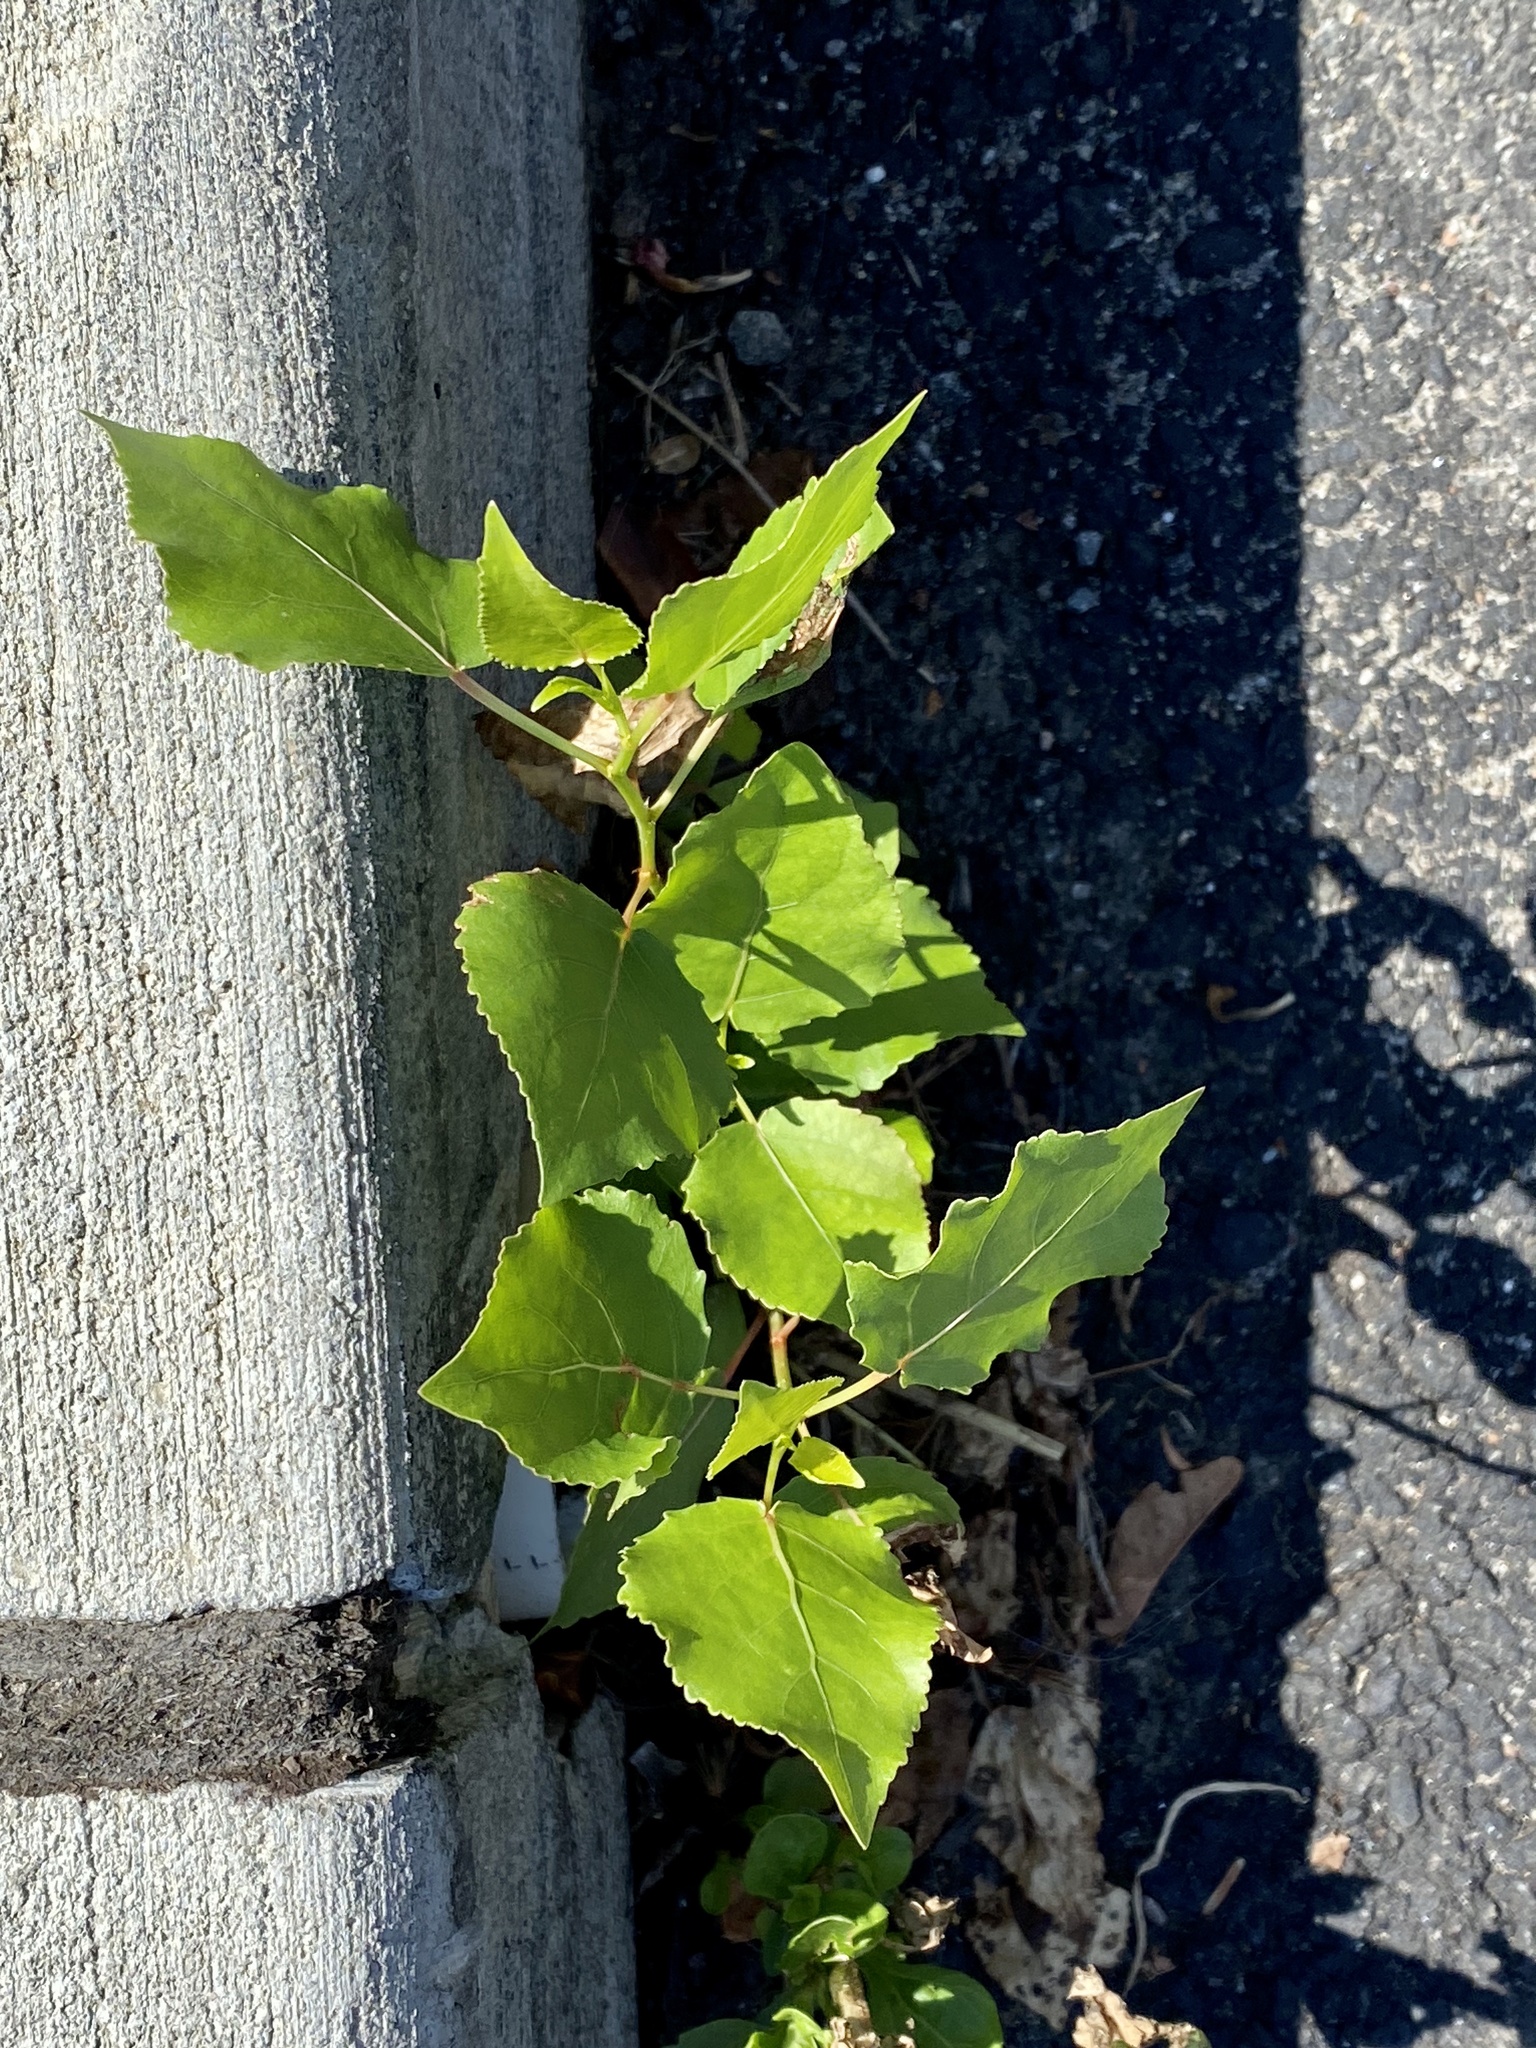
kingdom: Plantae
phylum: Tracheophyta
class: Magnoliopsida
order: Malpighiales
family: Salicaceae
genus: Populus
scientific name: Populus deltoides
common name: Eastern cottonwood
